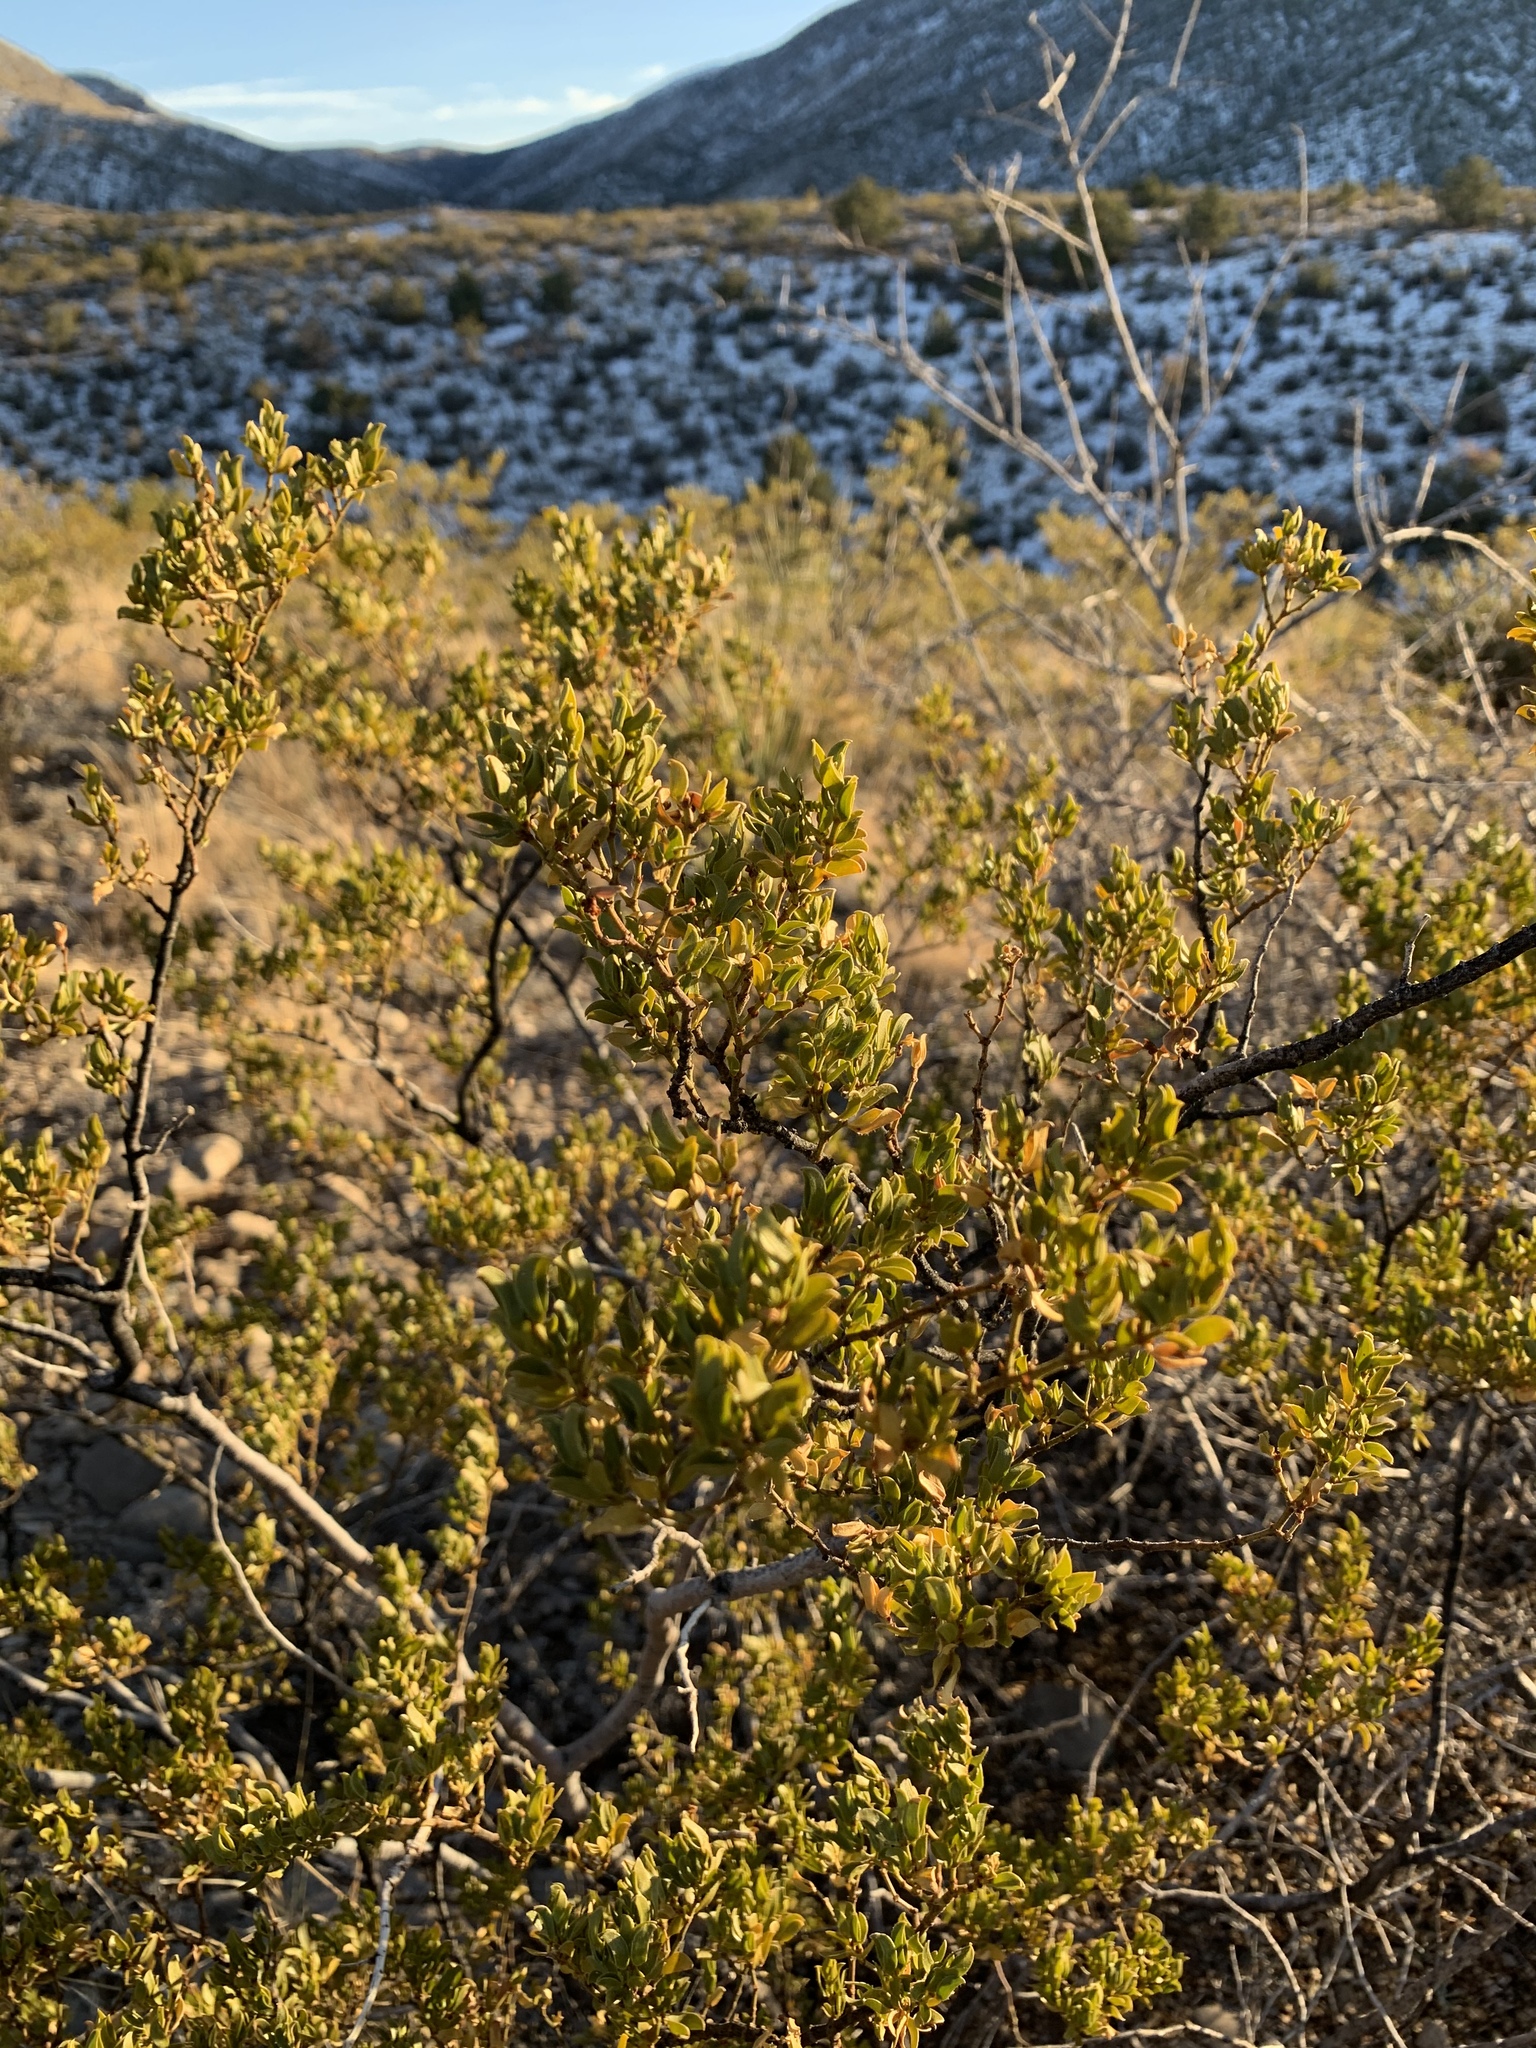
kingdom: Plantae
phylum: Tracheophyta
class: Magnoliopsida
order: Zygophyllales
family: Zygophyllaceae
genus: Larrea
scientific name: Larrea tridentata
